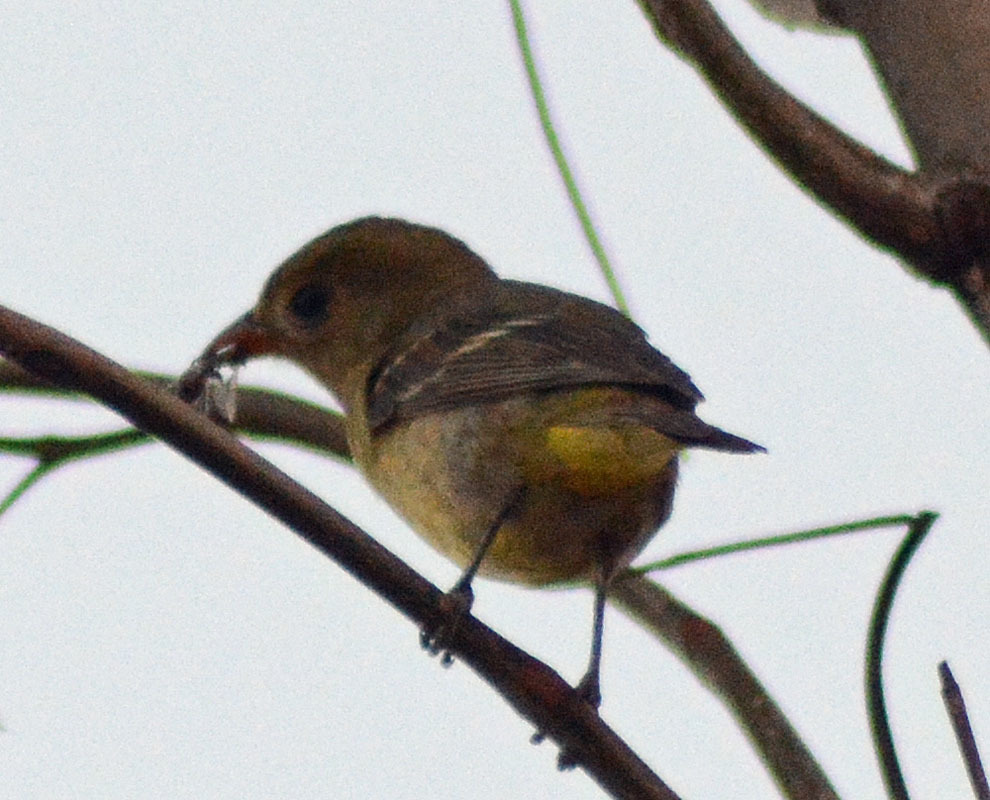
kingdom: Animalia
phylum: Chordata
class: Aves
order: Passeriformes
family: Cardinalidae
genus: Piranga
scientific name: Piranga ludoviciana
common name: Western tanager
